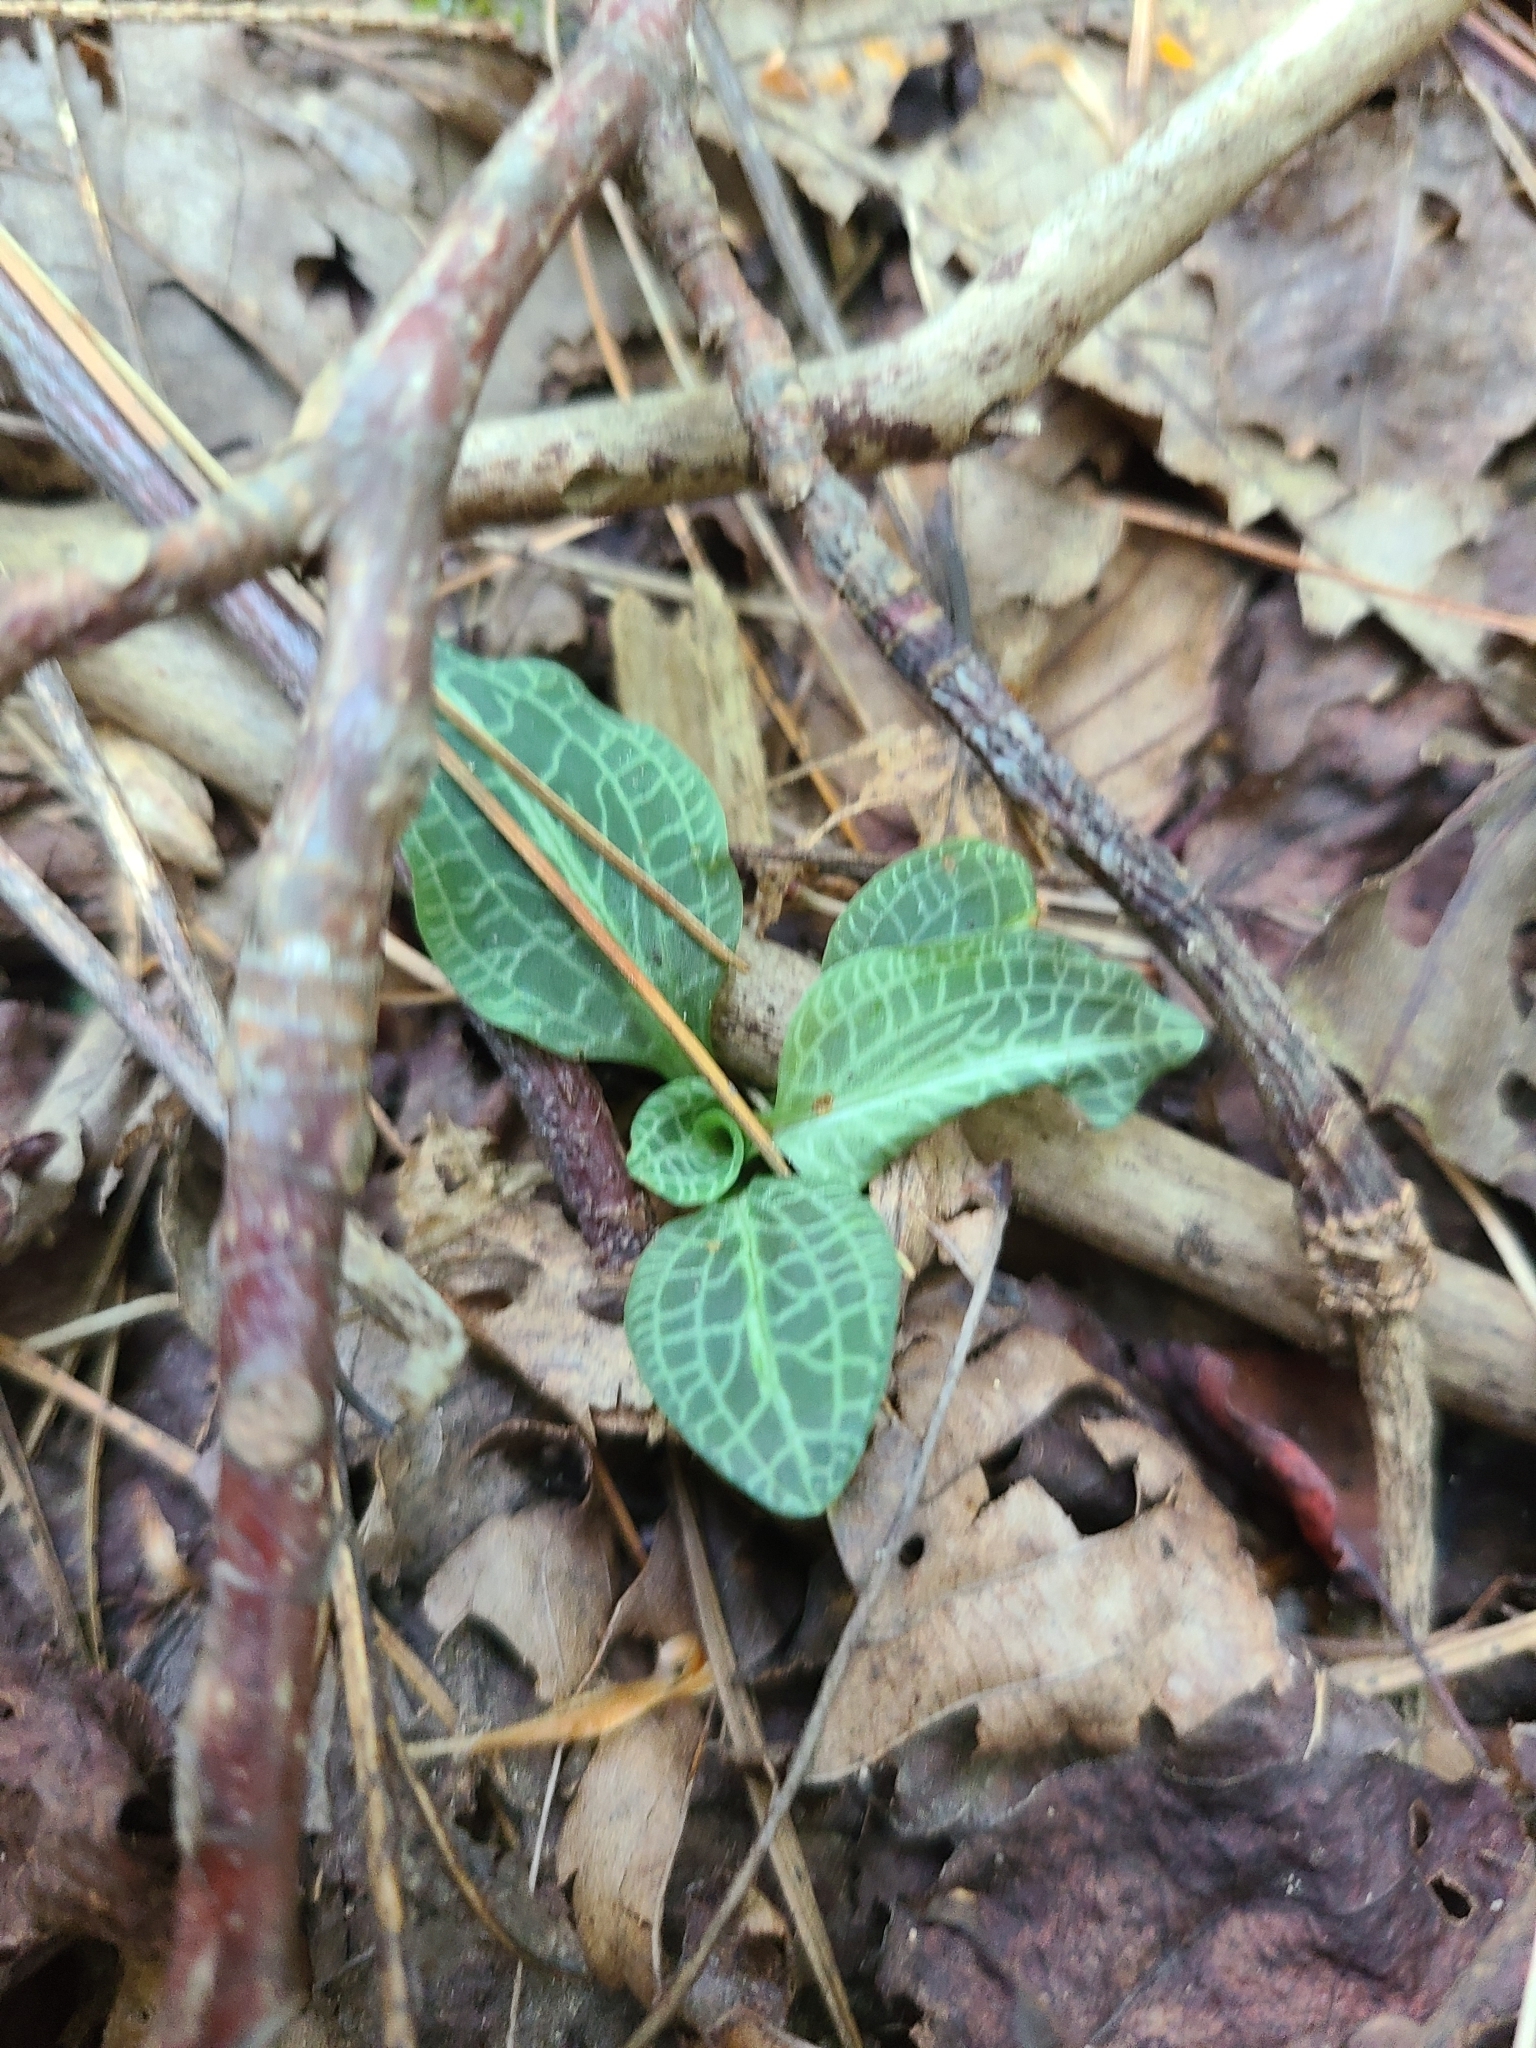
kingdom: Plantae
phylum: Tracheophyta
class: Liliopsida
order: Asparagales
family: Orchidaceae
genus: Goodyera
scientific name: Goodyera pubescens
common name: Downy rattlesnake-plantain
